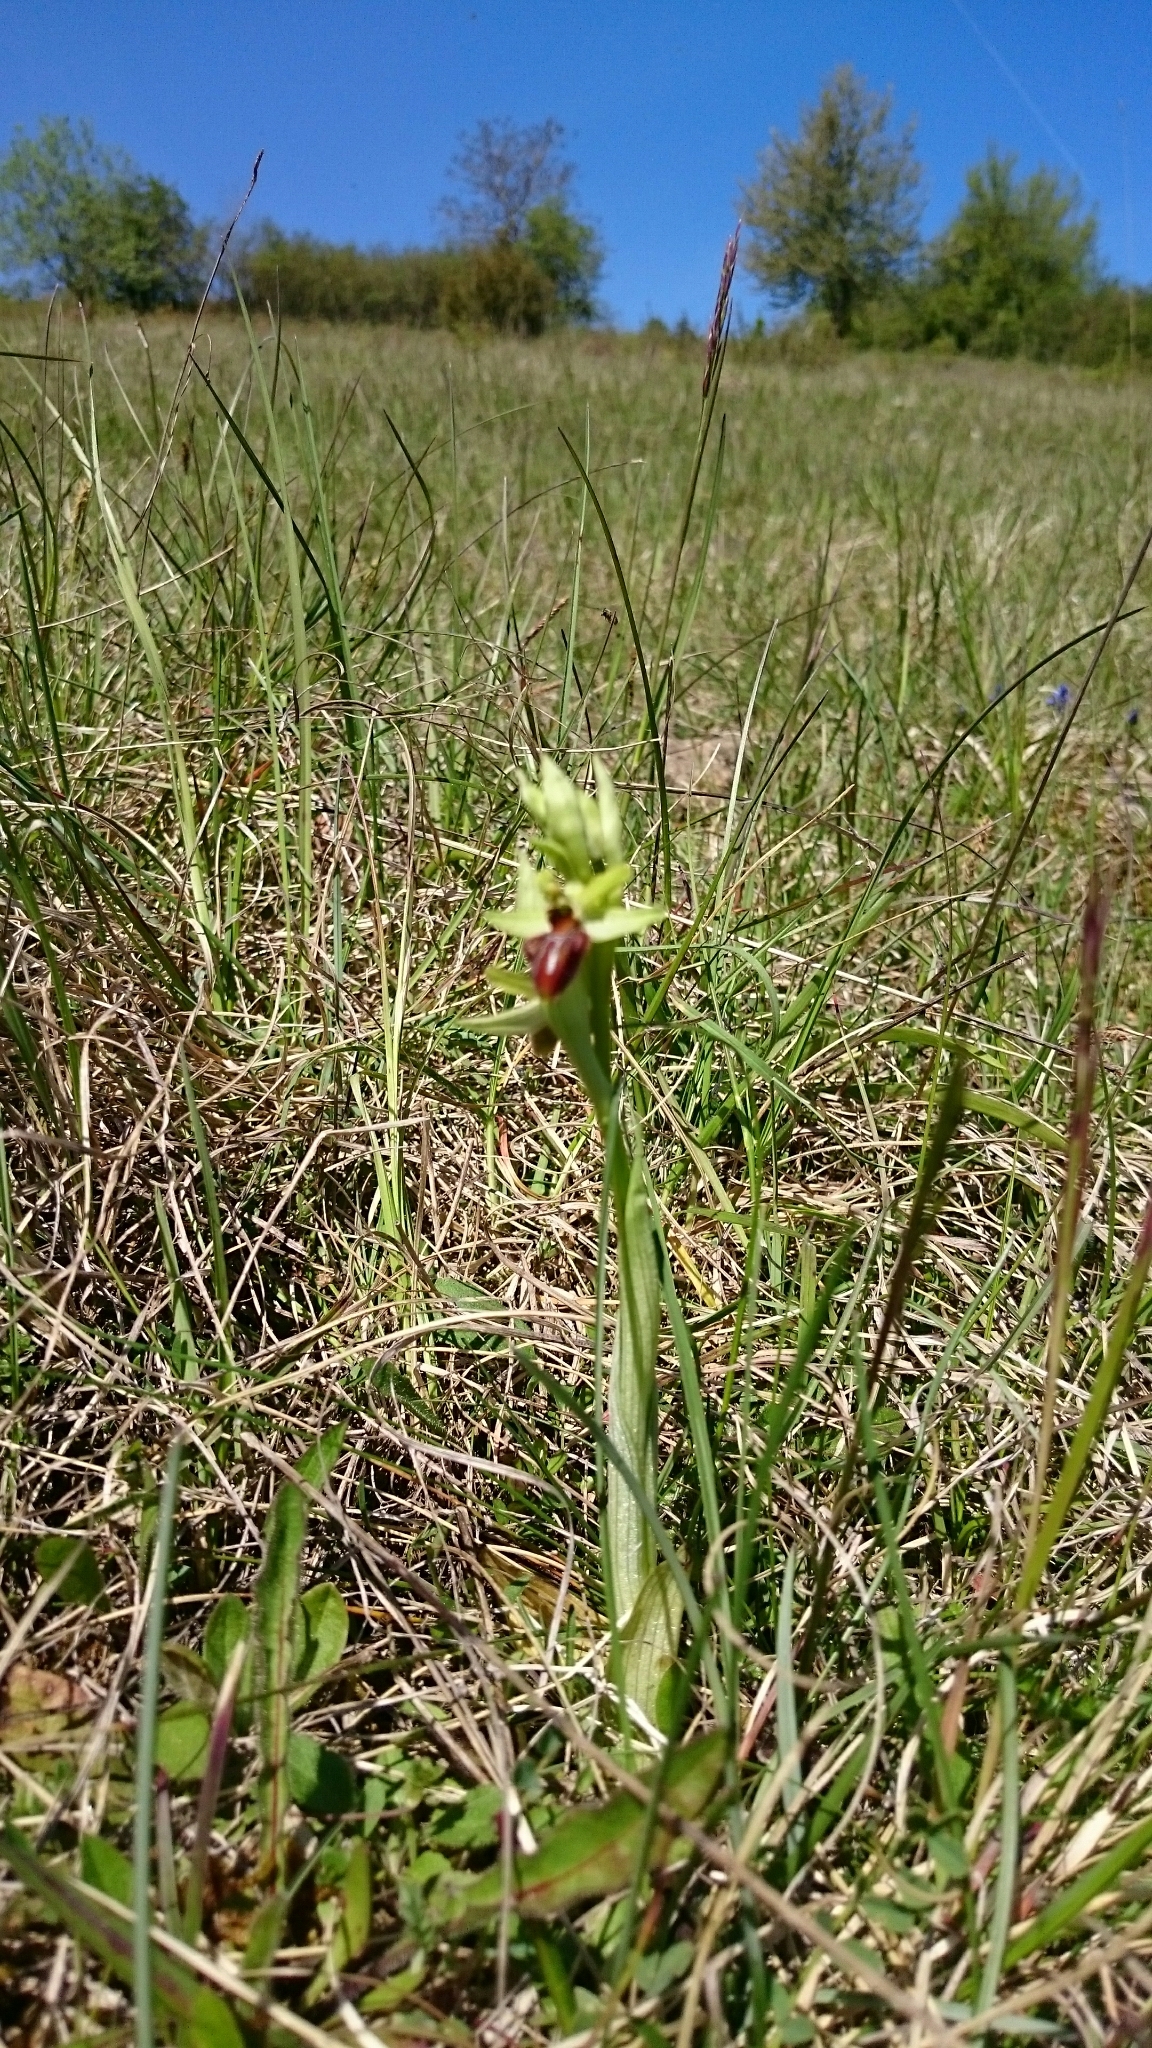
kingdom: Plantae
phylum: Tracheophyta
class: Liliopsida
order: Asparagales
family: Orchidaceae
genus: Ophrys
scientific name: Ophrys sphegodes
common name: Early spider-orchid
